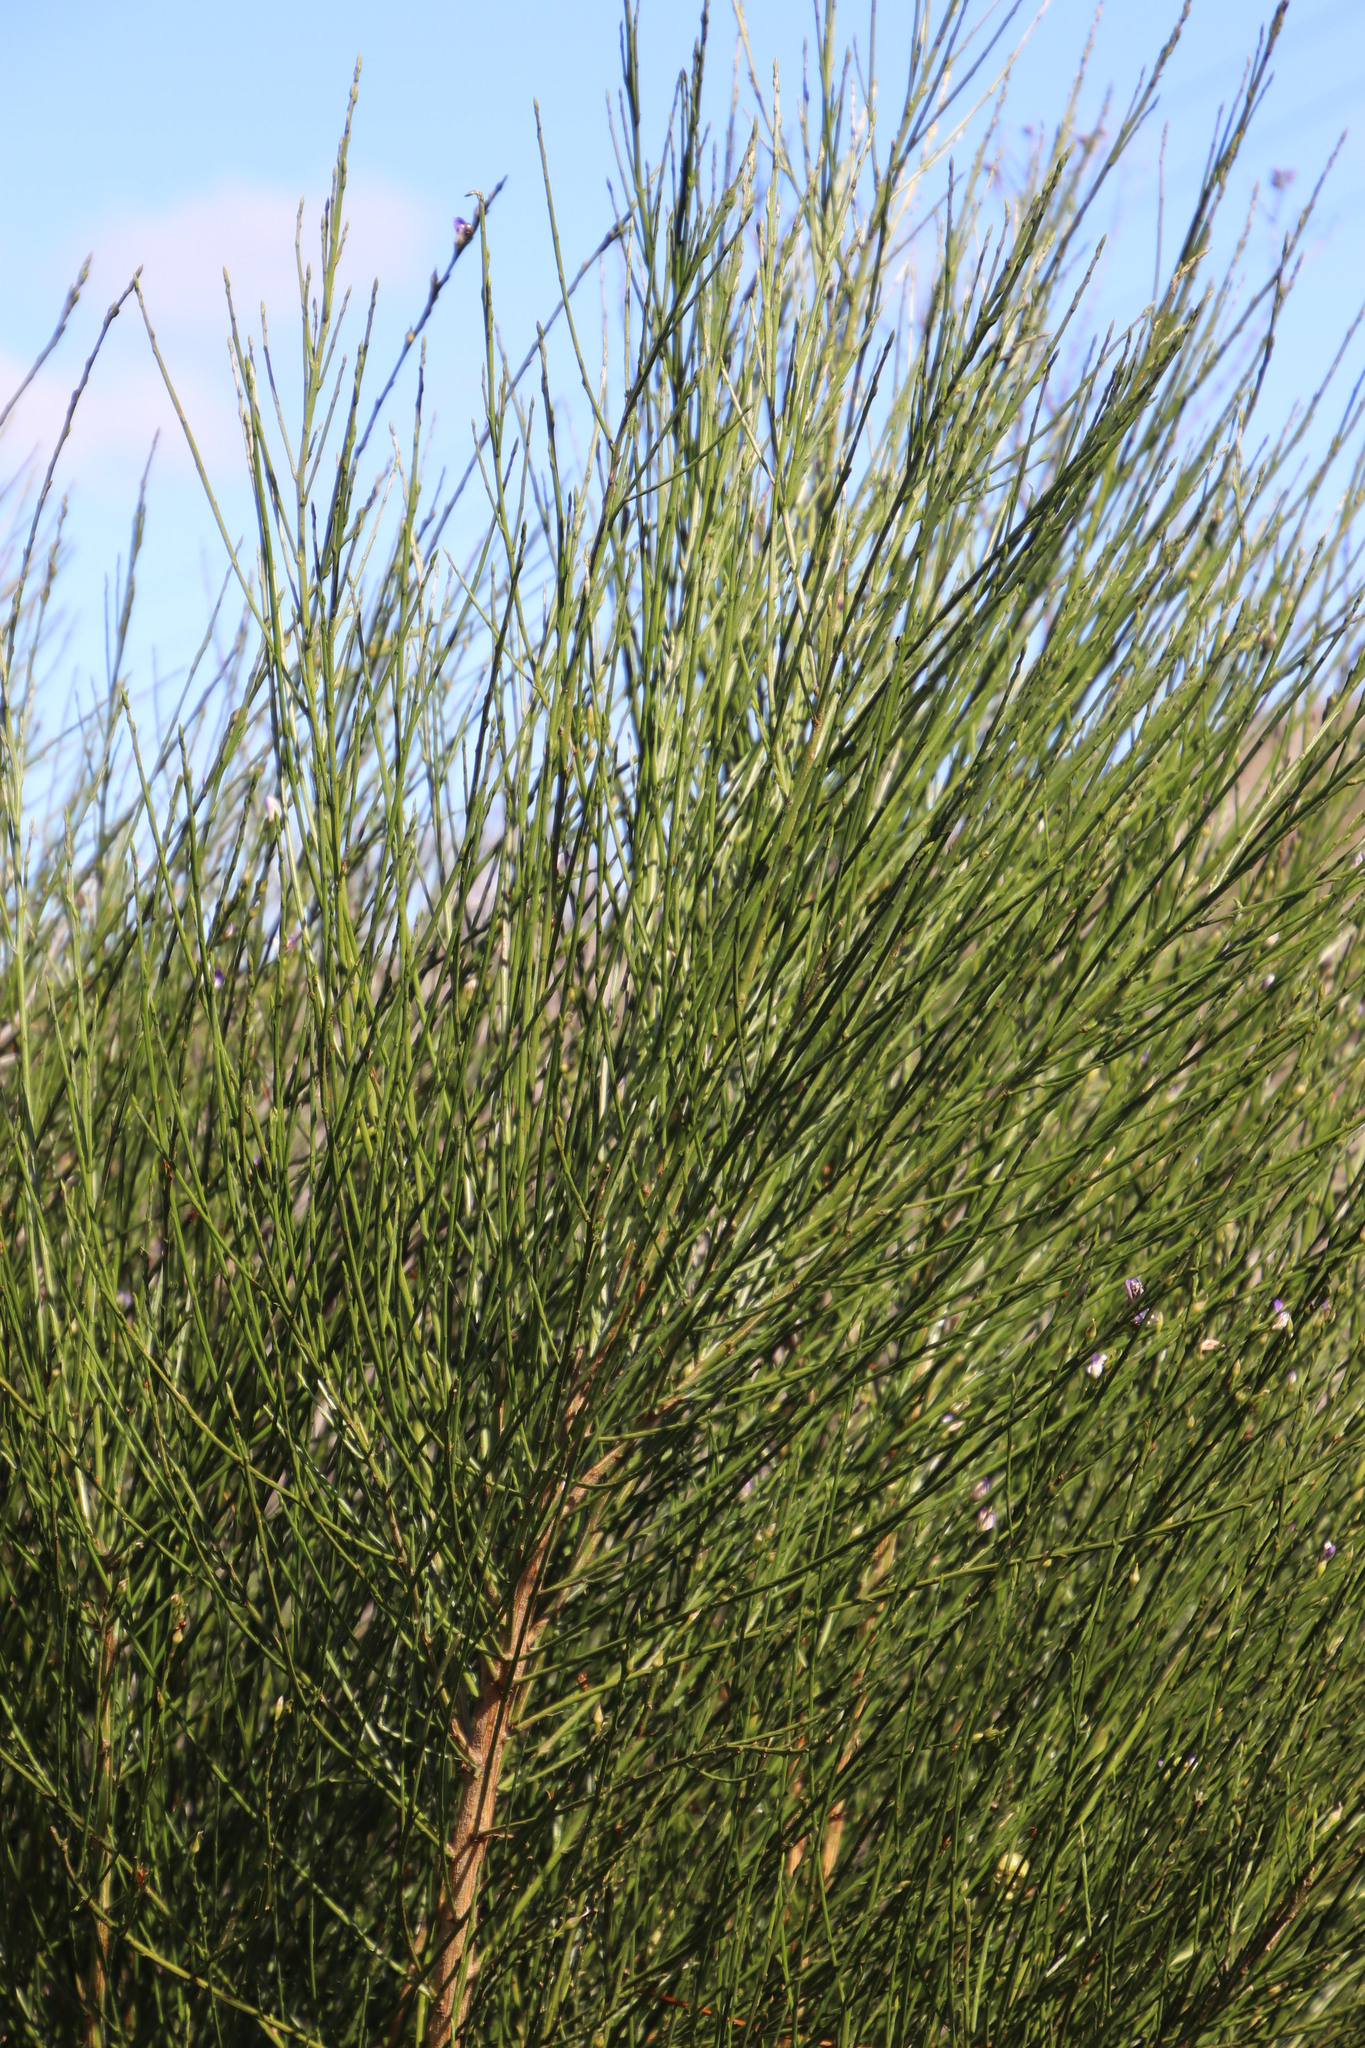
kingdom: Plantae
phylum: Tracheophyta
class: Magnoliopsida
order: Fabales
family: Fabaceae
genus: Psoralea
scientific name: Psoralea aphylla
